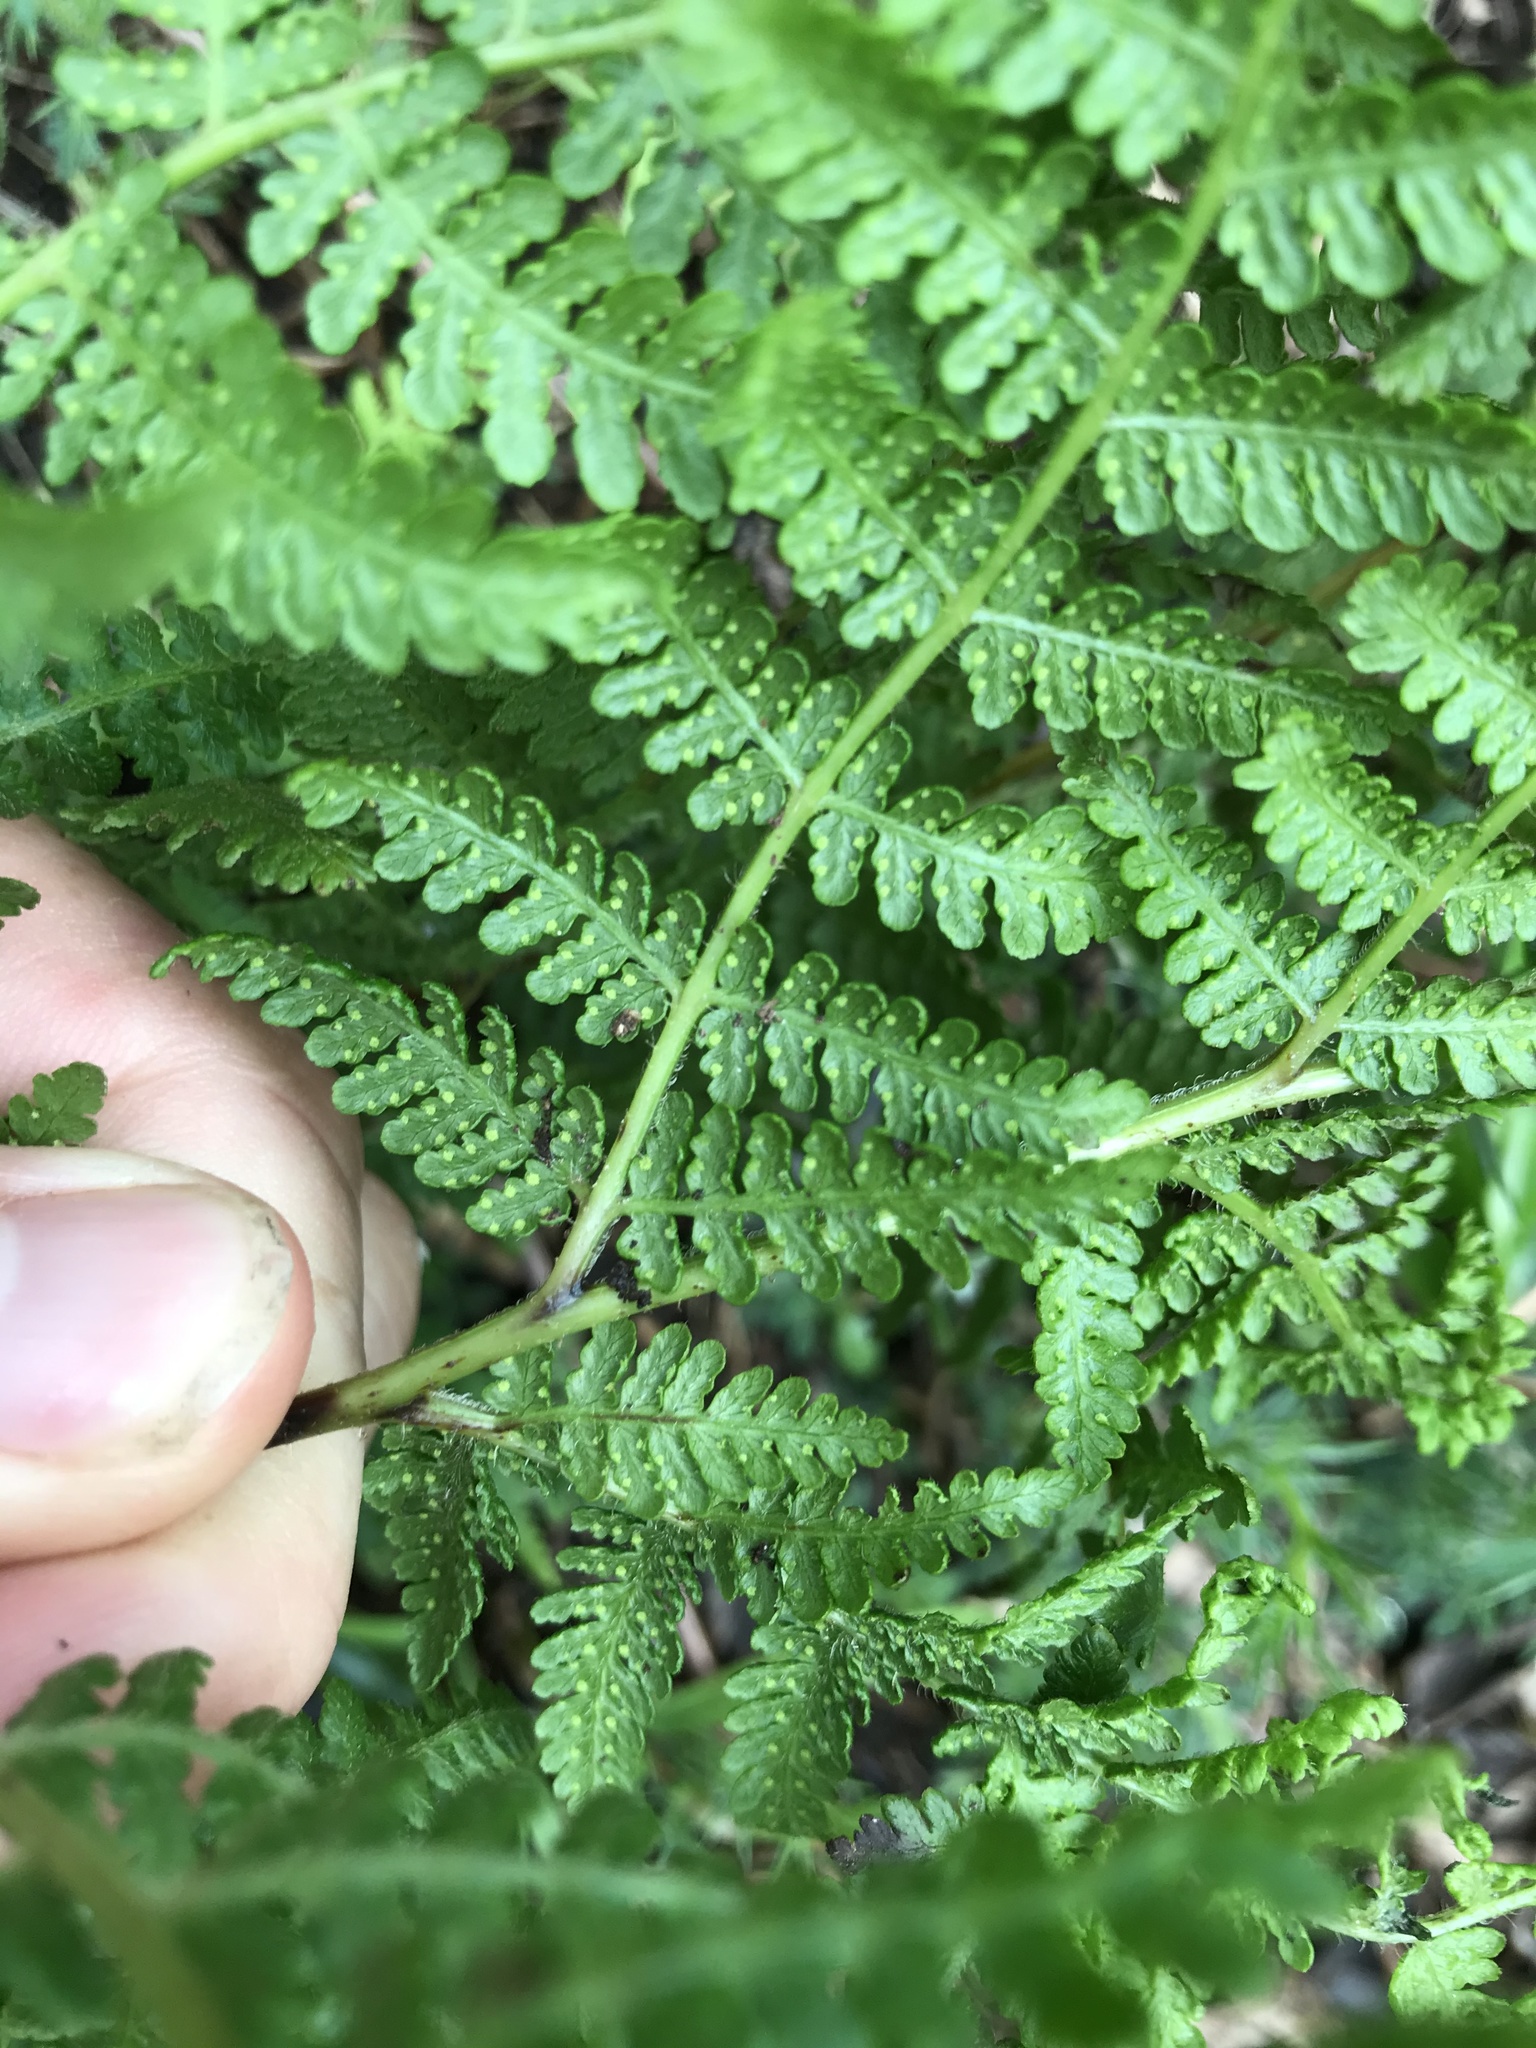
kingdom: Plantae
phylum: Tracheophyta
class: Polypodiopsida
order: Polypodiales
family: Dennstaedtiaceae
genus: Hypolepis
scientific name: Hypolepis ambigua
